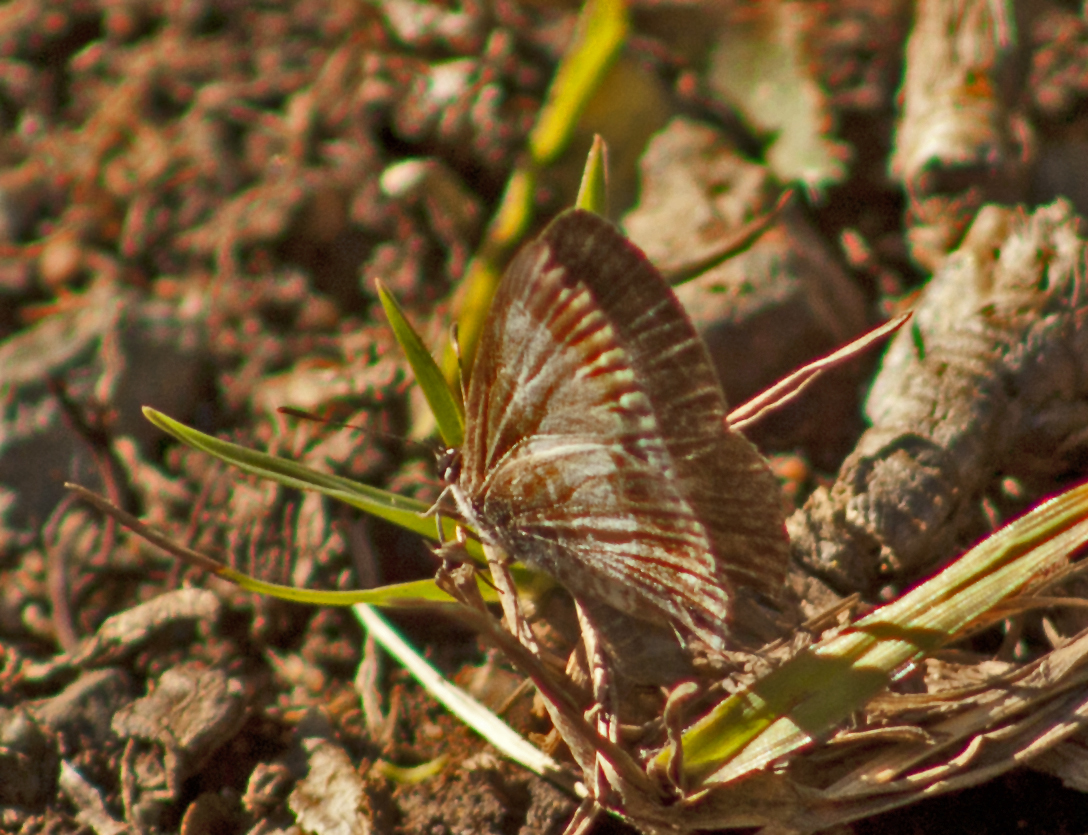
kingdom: Animalia
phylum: Arthropoda
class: Insecta
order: Lepidoptera
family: Lycaenidae
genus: Nacaduba
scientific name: Nacaduba kurava
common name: Transparent 6-line blue
